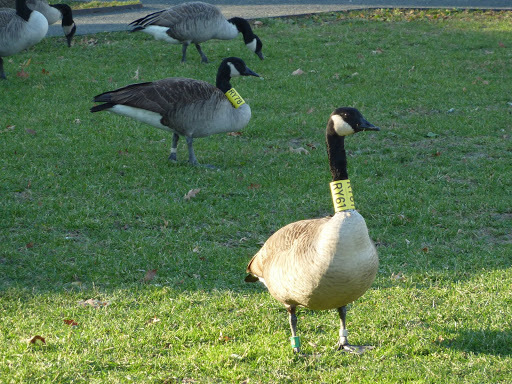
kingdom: Animalia
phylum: Chordata
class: Aves
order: Anseriformes
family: Anatidae
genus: Branta
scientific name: Branta canadensis
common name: Canada goose
